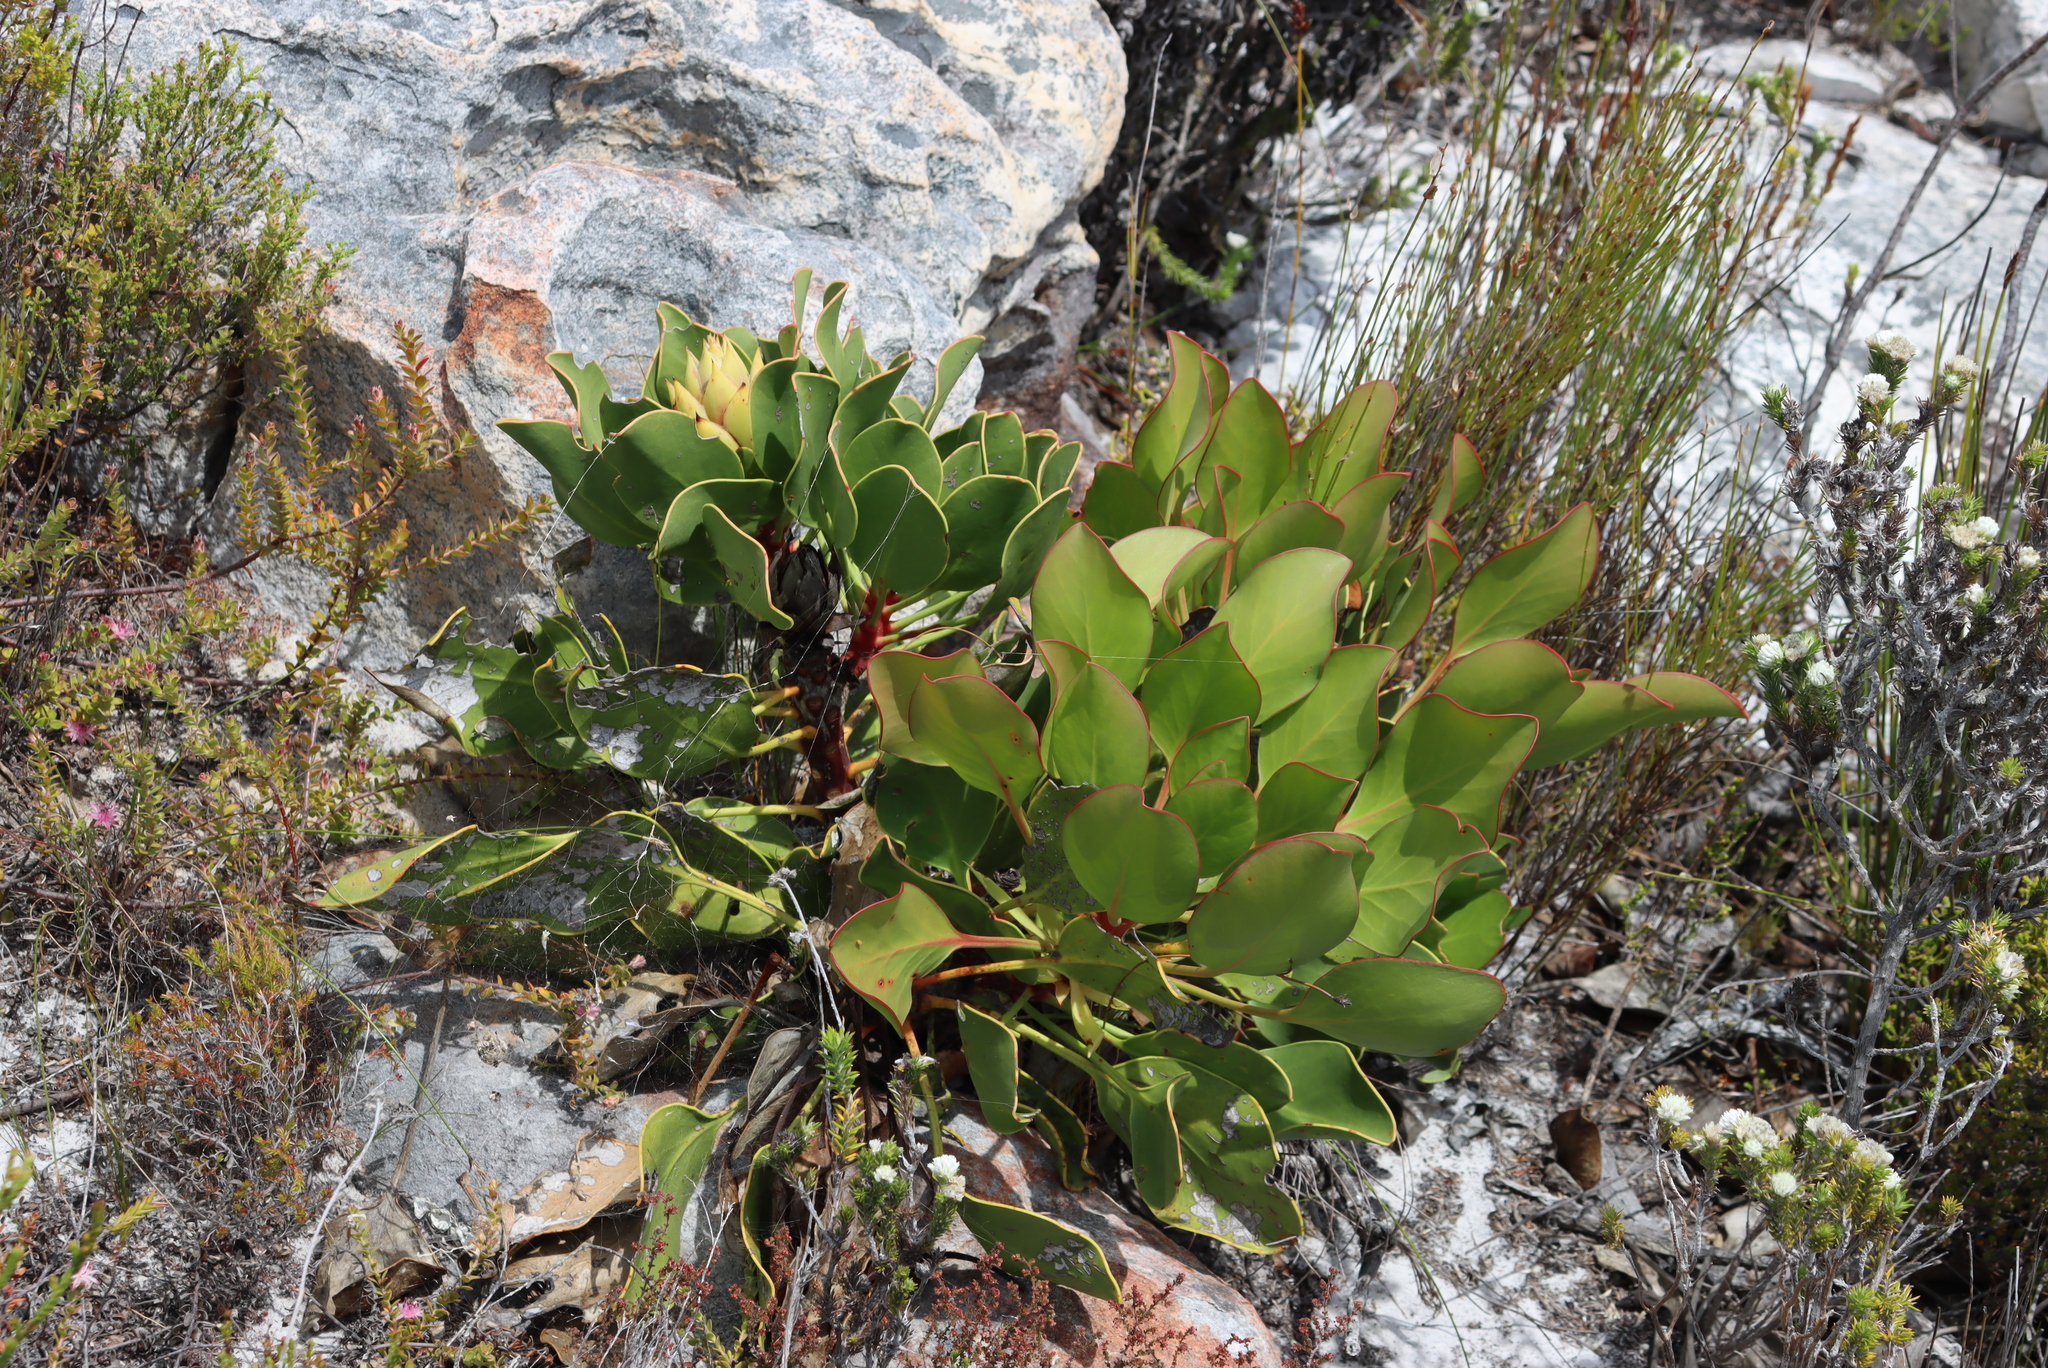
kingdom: Plantae
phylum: Tracheophyta
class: Magnoliopsida
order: Proteales
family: Proteaceae
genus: Protea
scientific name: Protea cynaroides
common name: King protea
